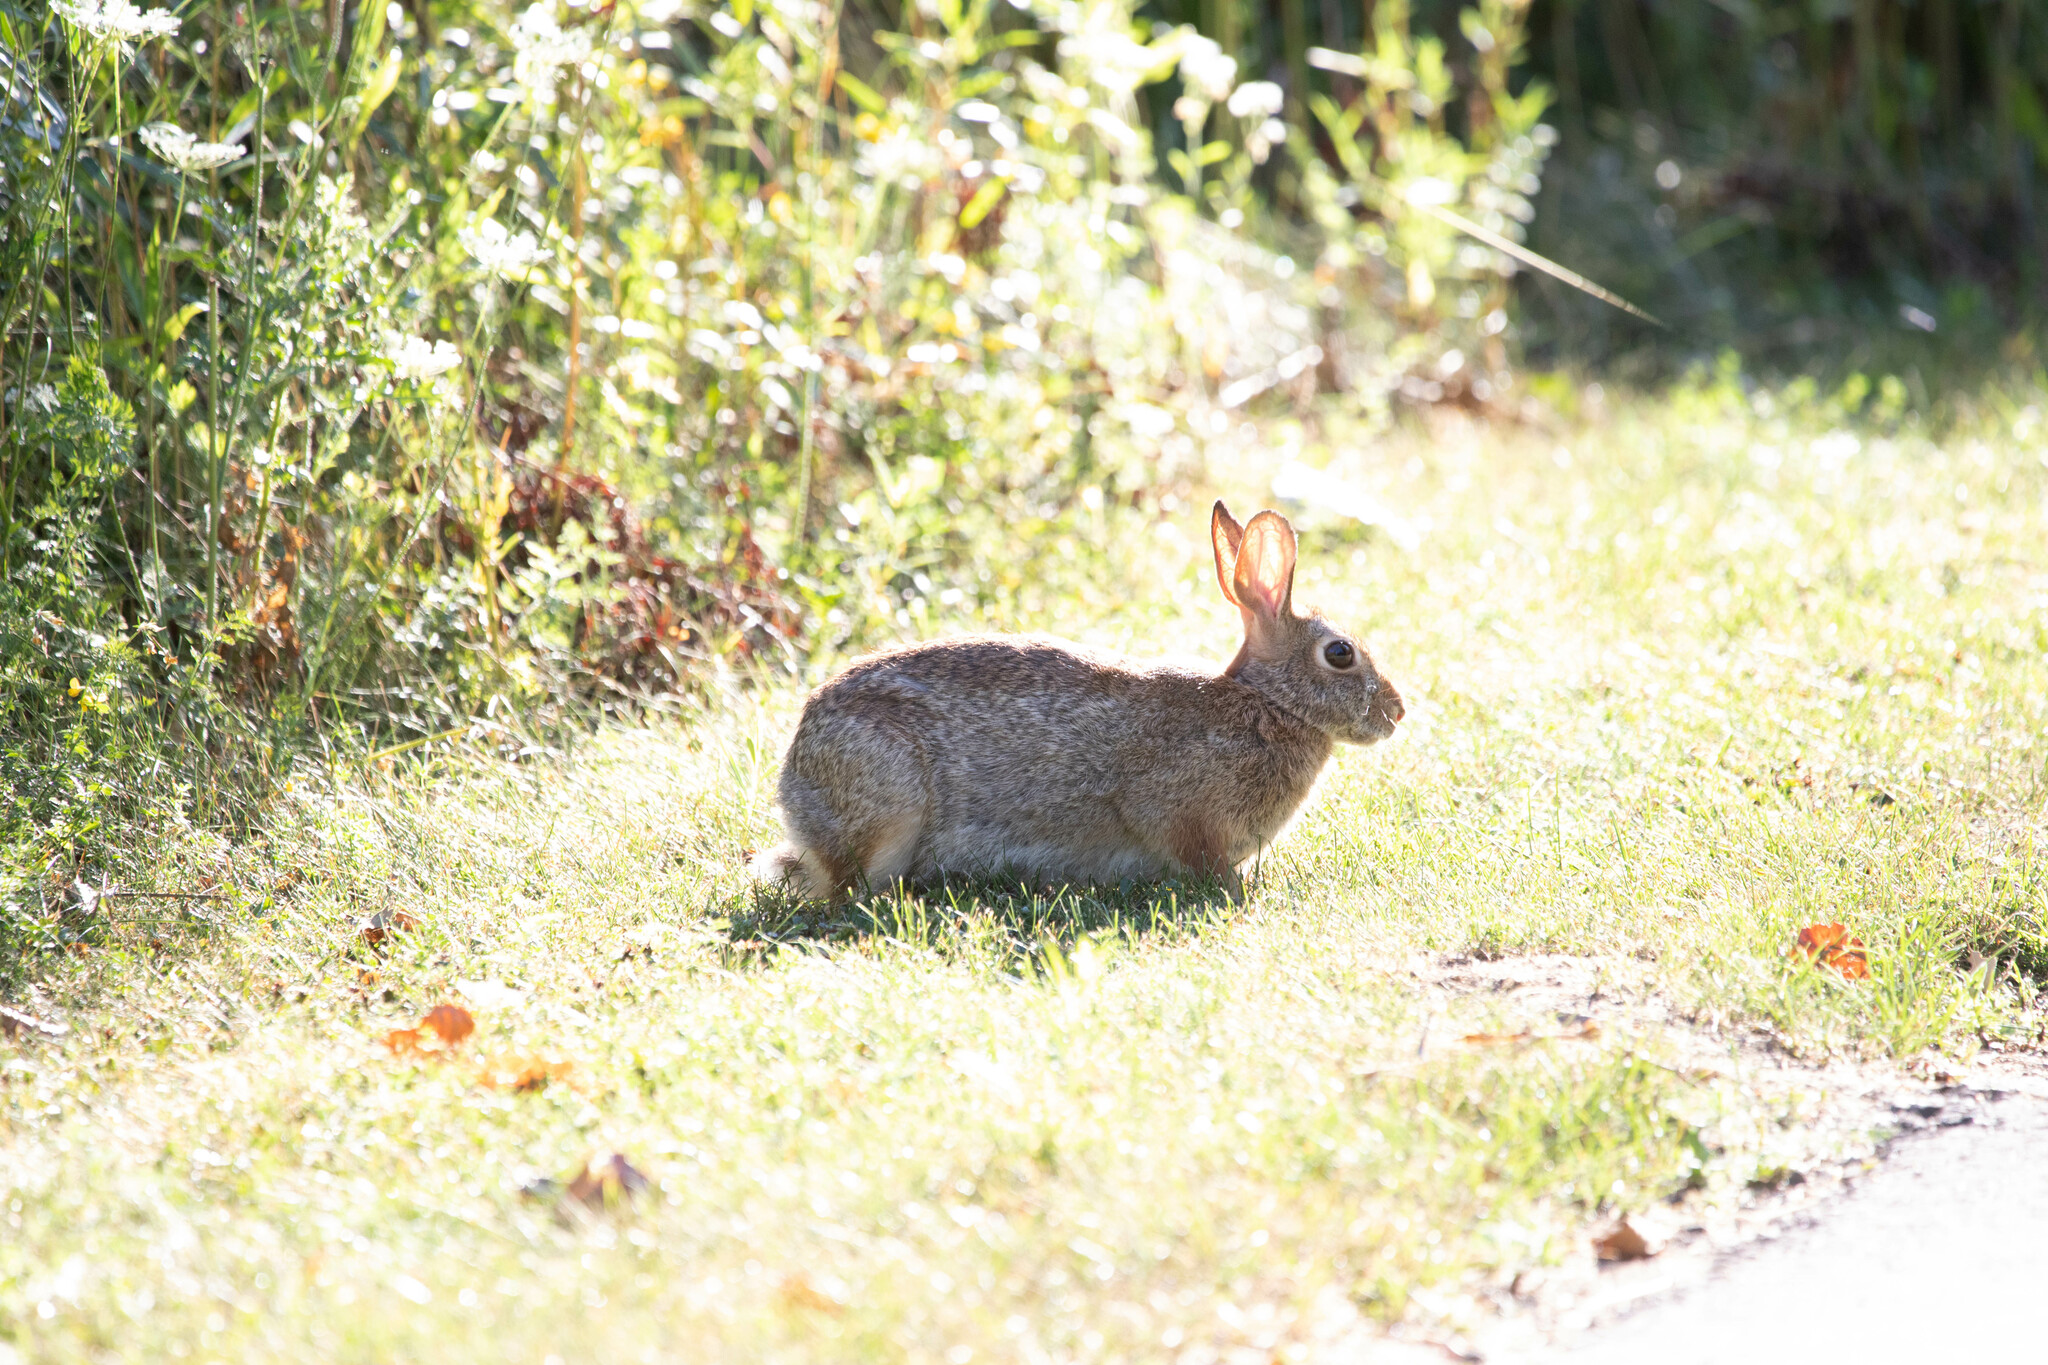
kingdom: Animalia
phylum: Chordata
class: Mammalia
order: Lagomorpha
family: Leporidae
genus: Sylvilagus
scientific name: Sylvilagus floridanus
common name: Eastern cottontail
